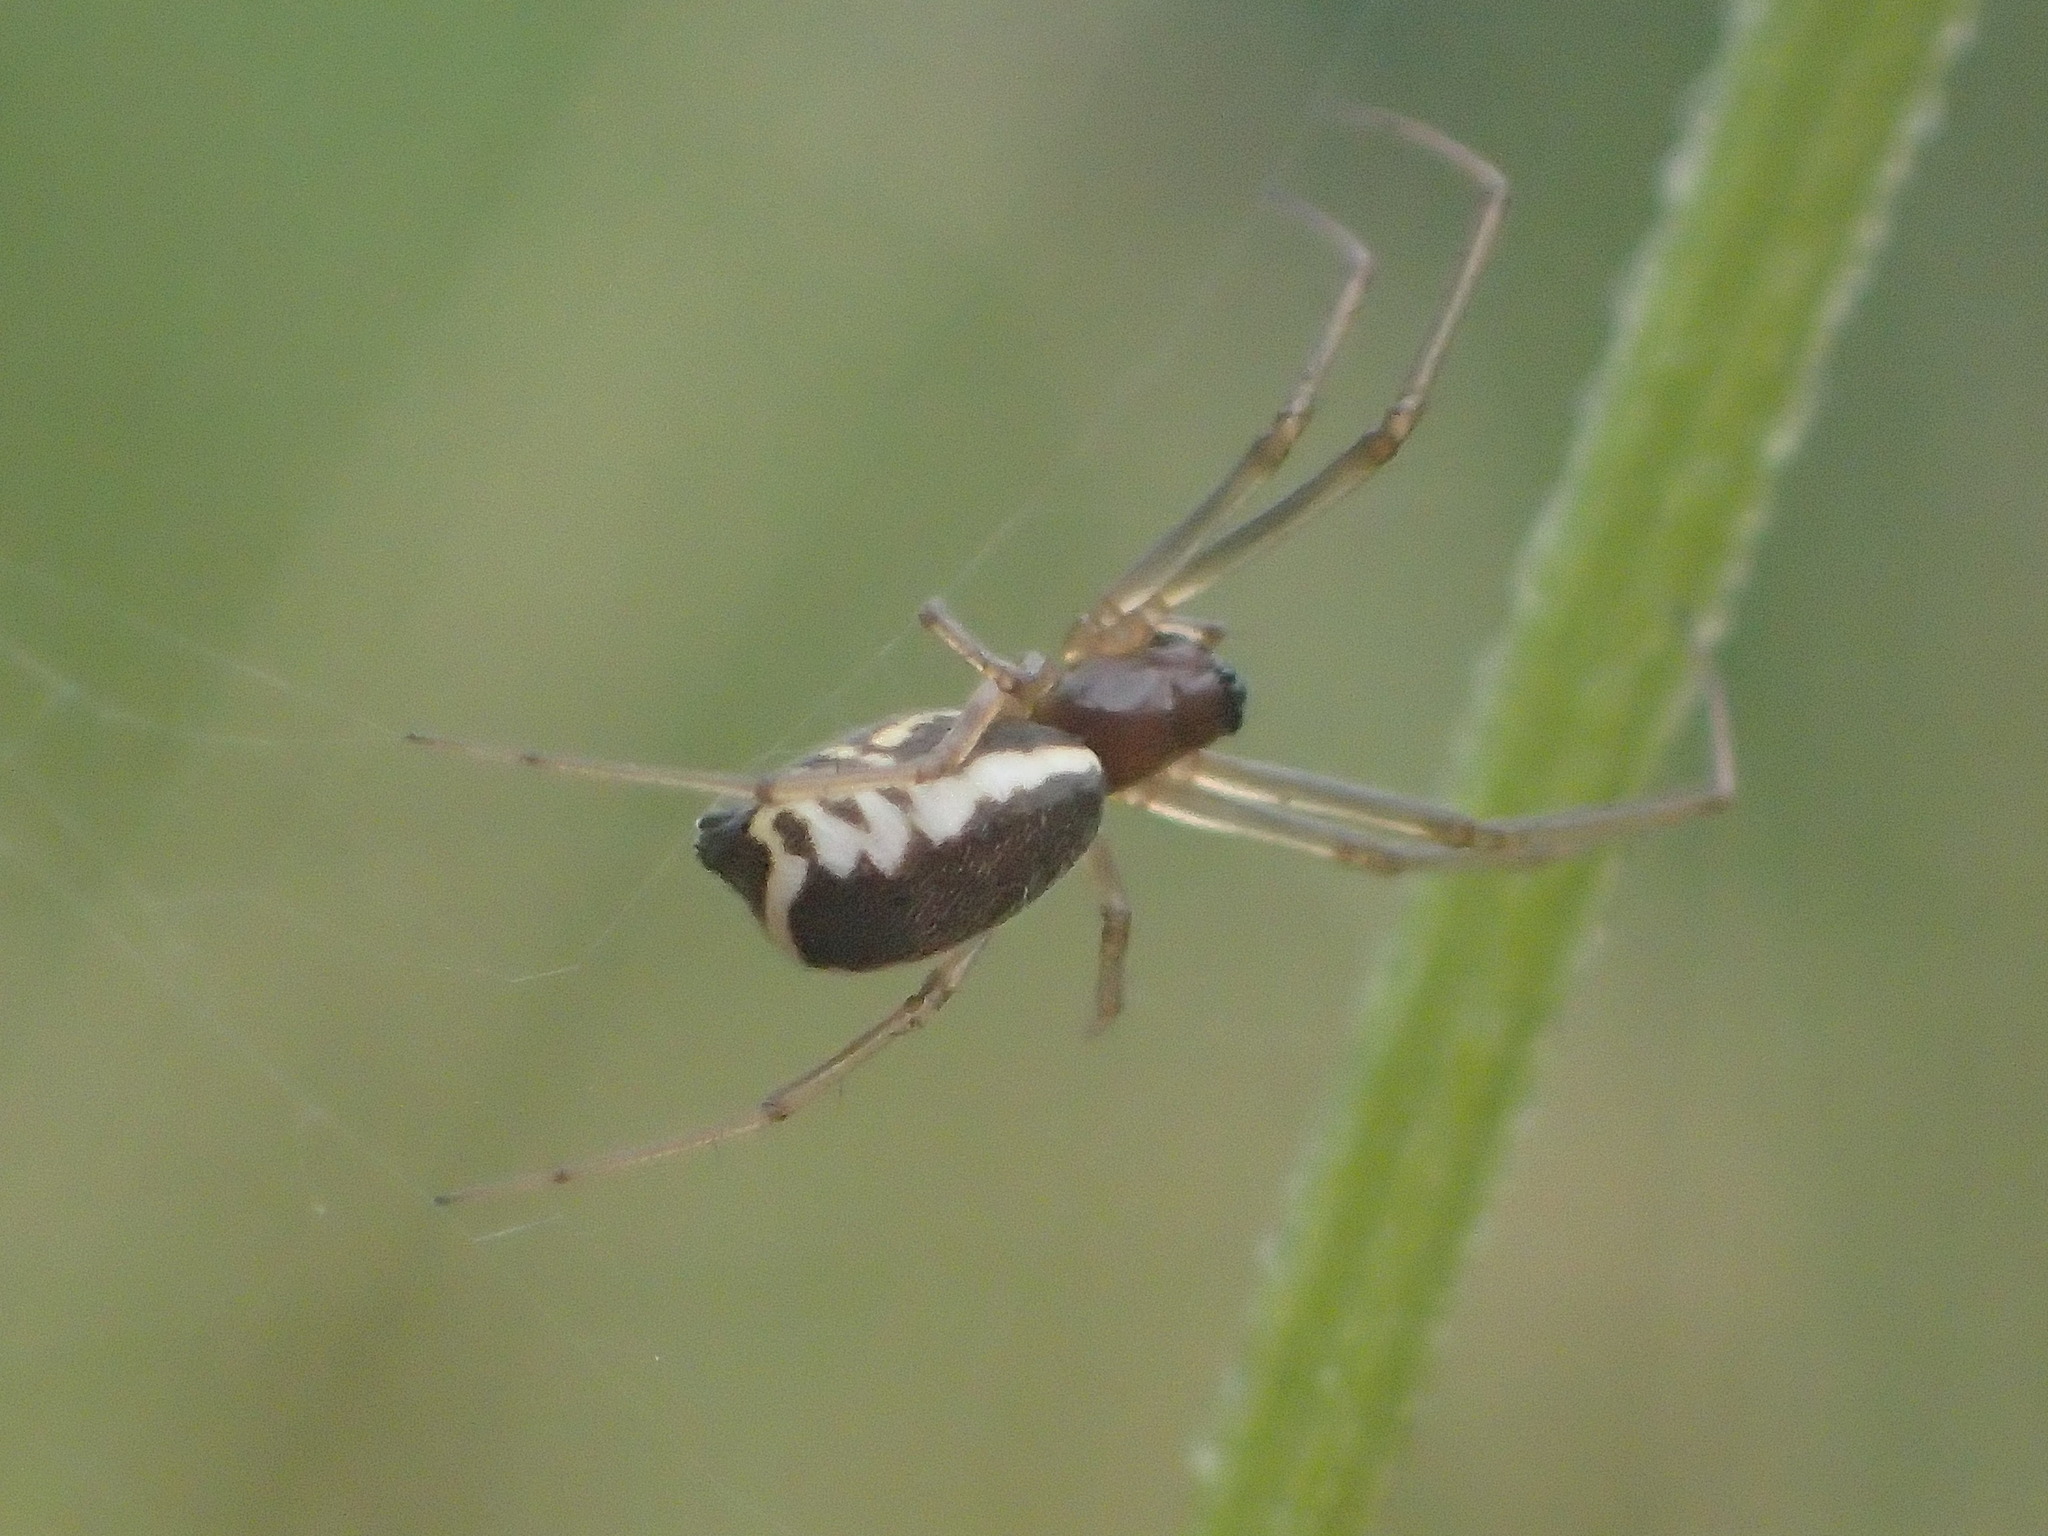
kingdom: Animalia
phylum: Arthropoda
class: Arachnida
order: Araneae
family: Linyphiidae
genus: Frontinella
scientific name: Frontinella pyramitela
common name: Bowl-and-doily spider
